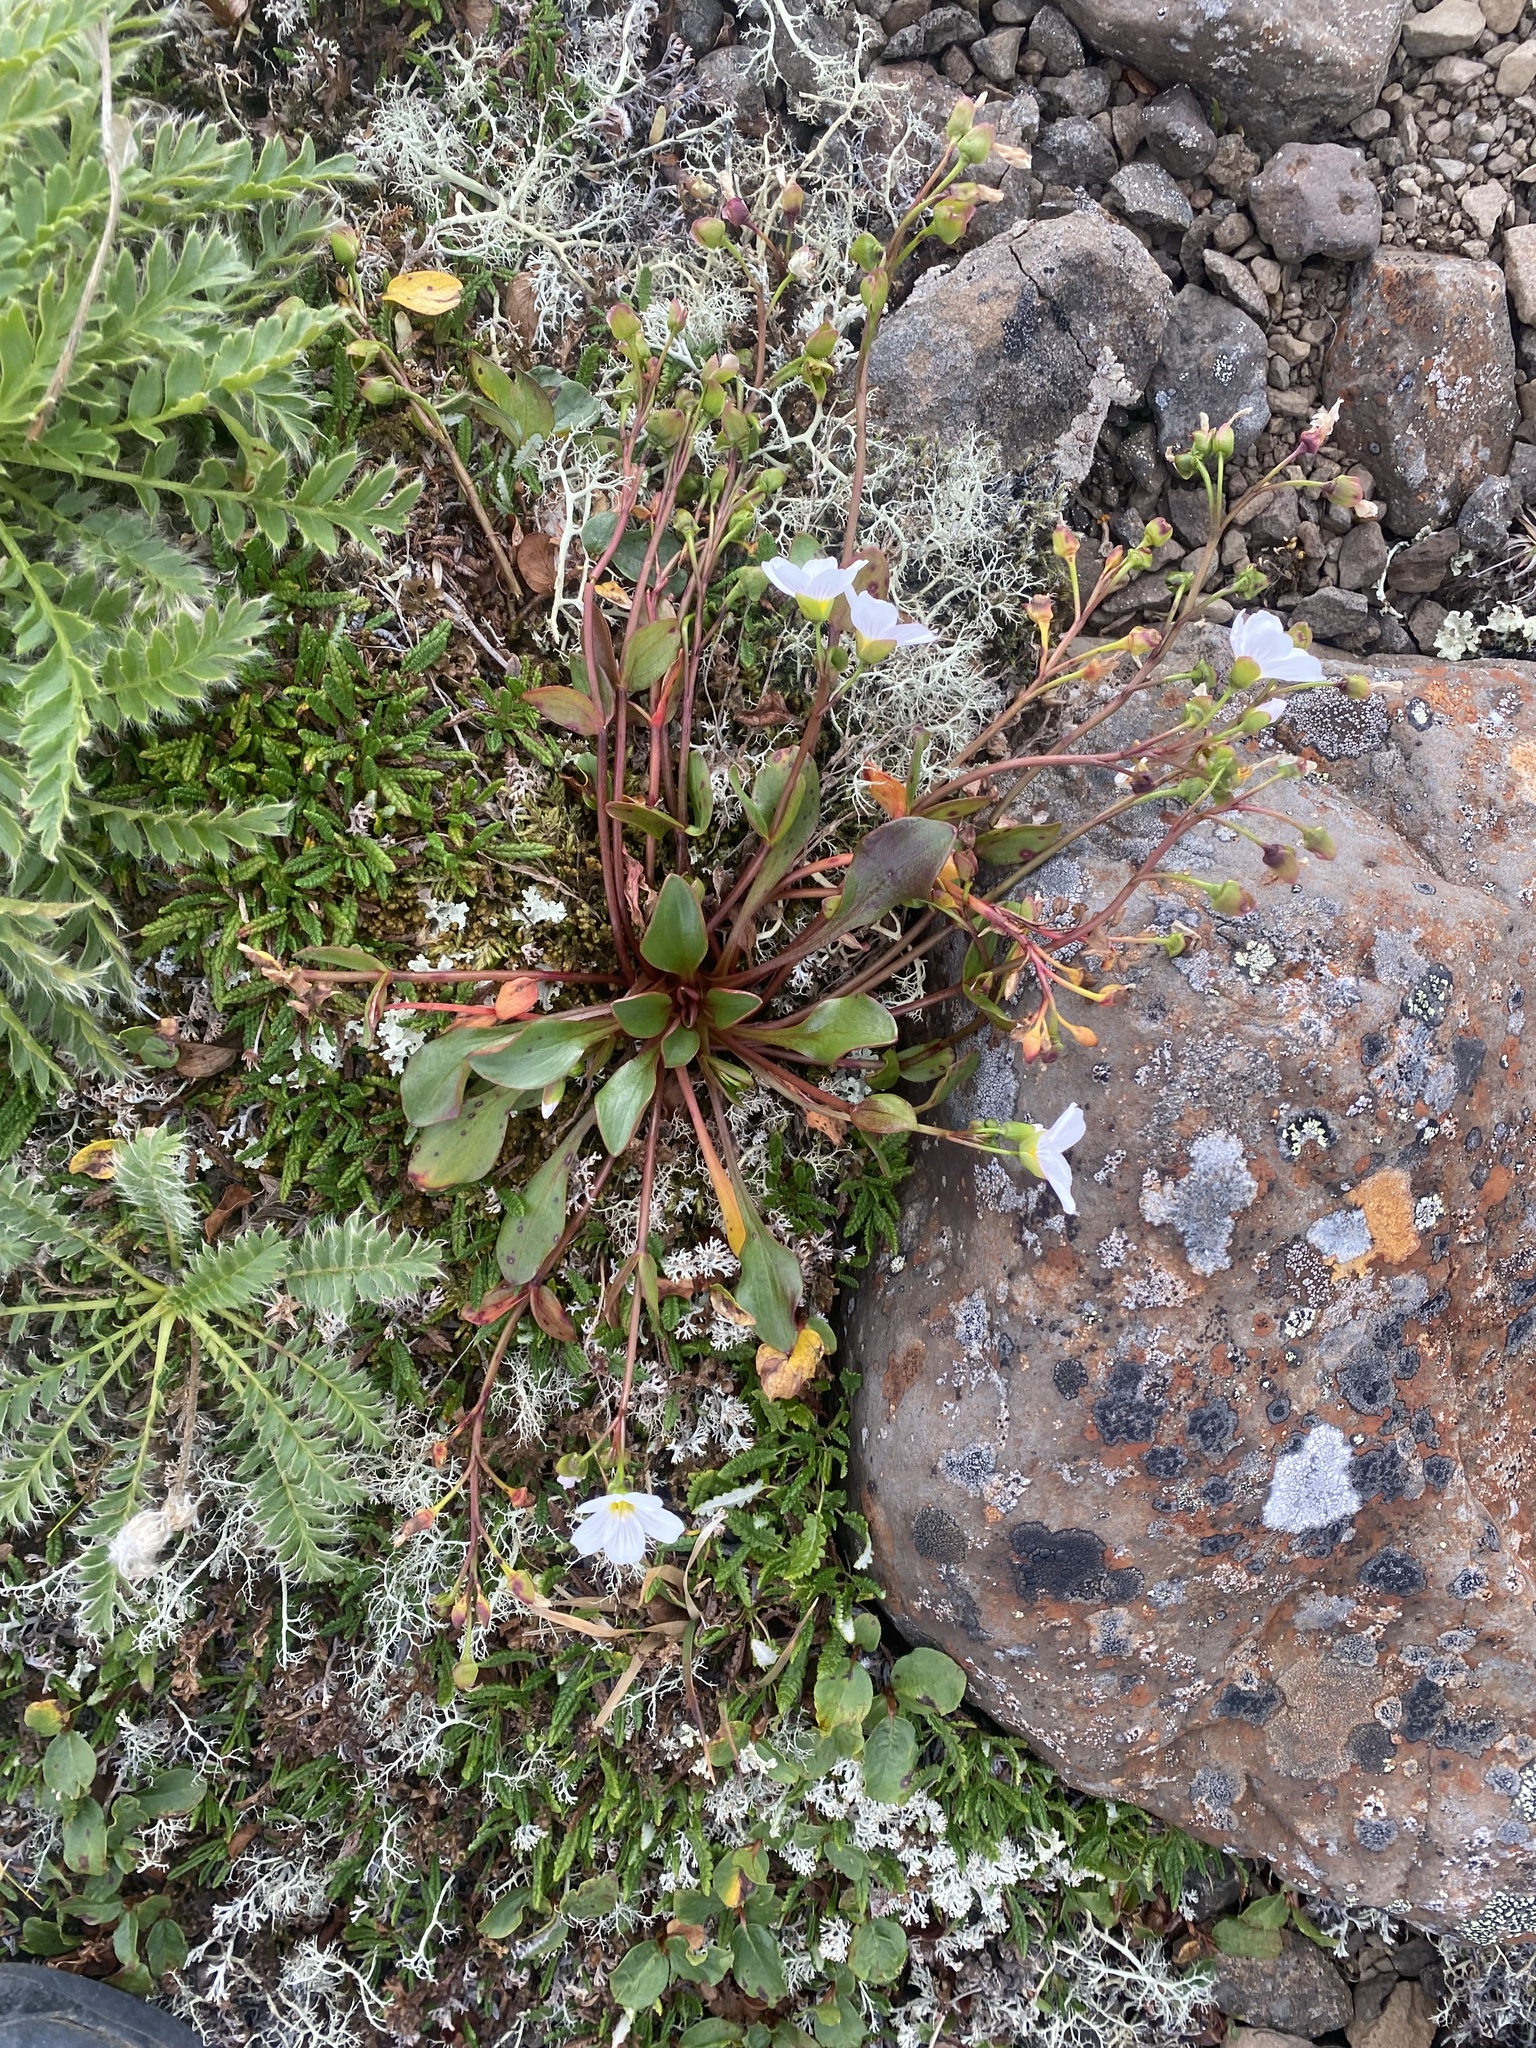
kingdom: Plantae
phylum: Tracheophyta
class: Magnoliopsida
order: Caryophyllales
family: Montiaceae
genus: Claytonia
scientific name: Claytonia joanneana
